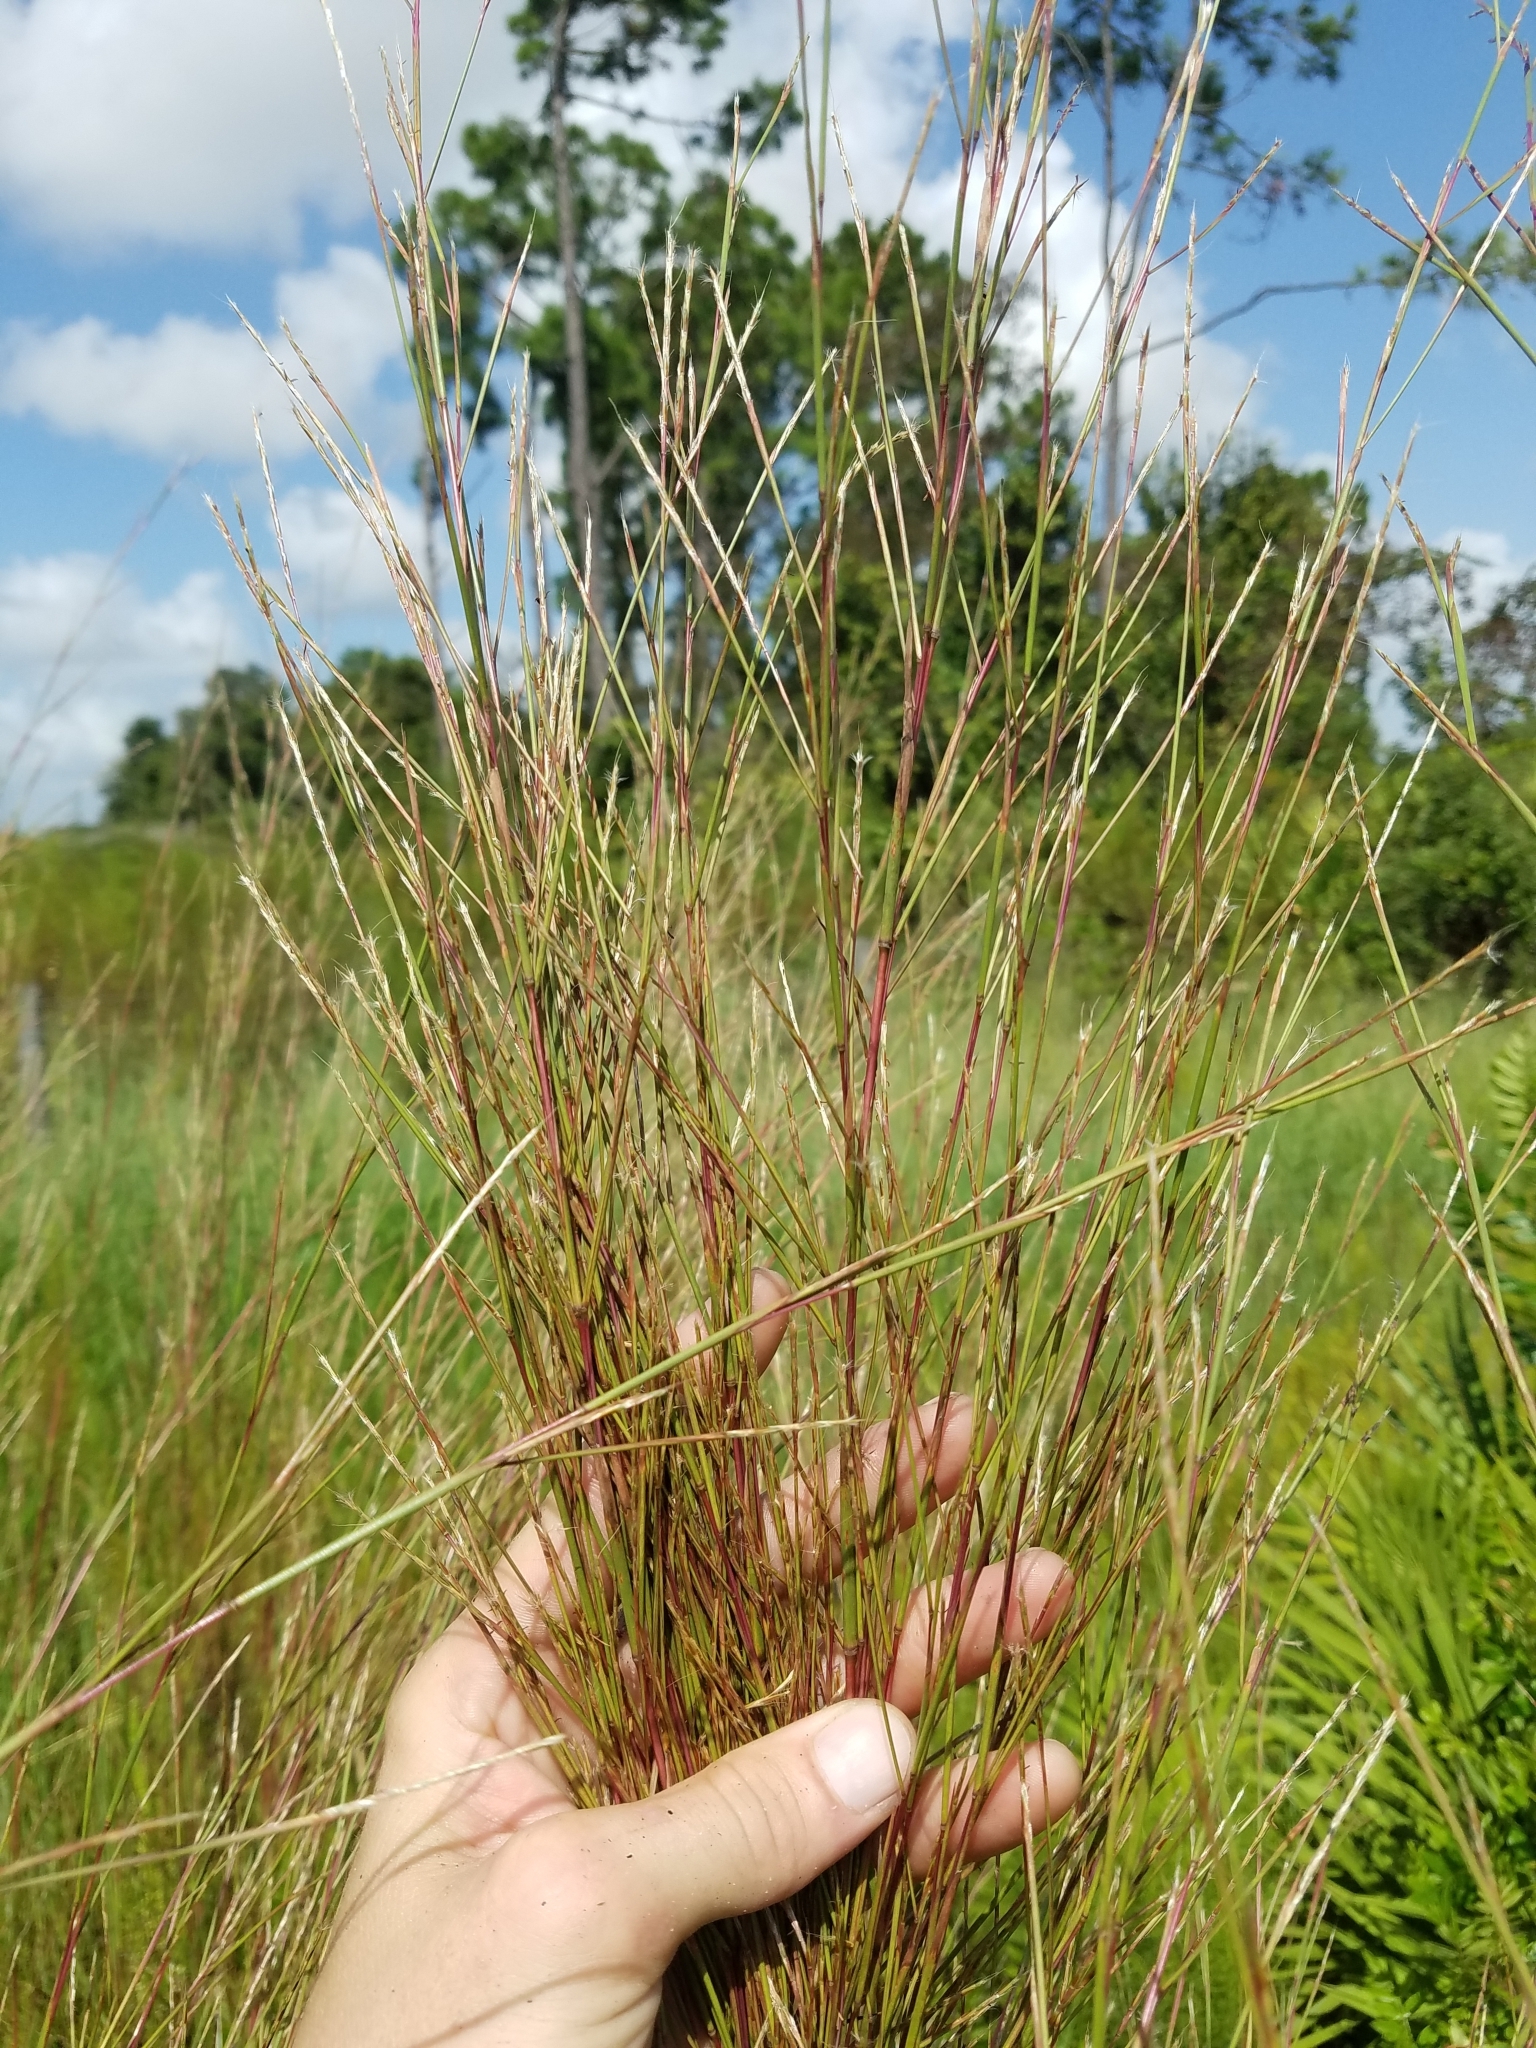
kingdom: Plantae
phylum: Tracheophyta
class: Liliopsida
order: Poales
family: Poaceae
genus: Andropogon
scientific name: Andropogon stolonifer
